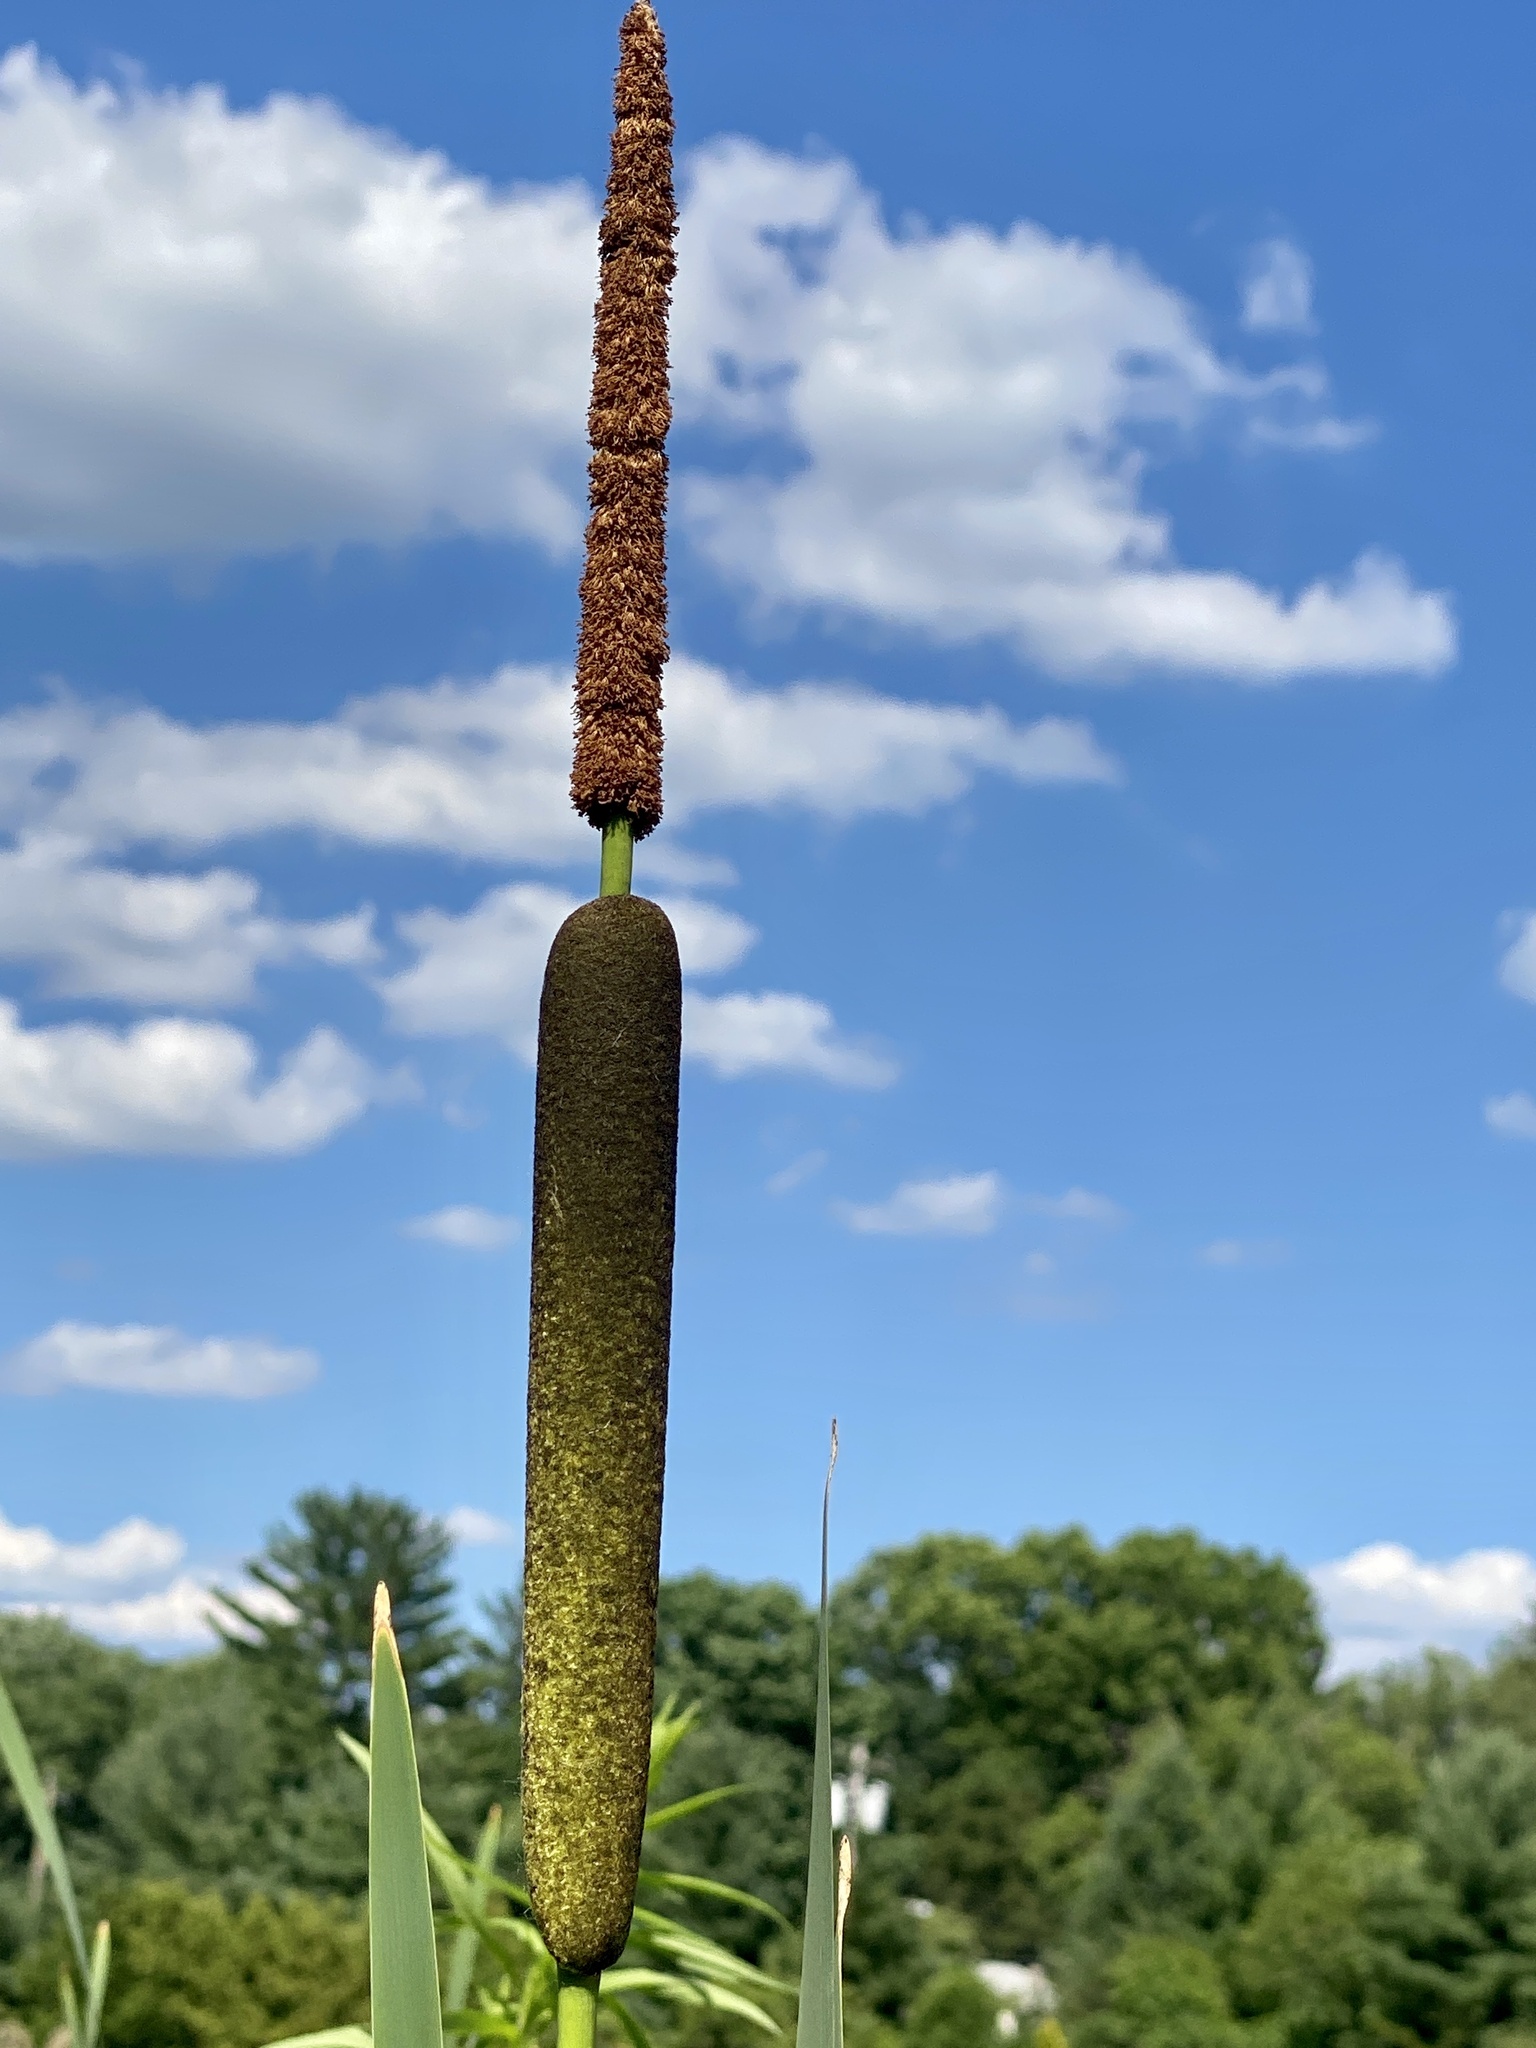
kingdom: Plantae
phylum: Tracheophyta
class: Liliopsida
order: Poales
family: Typhaceae
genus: Typha
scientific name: Typha angustifolia
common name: Lesser bulrush
